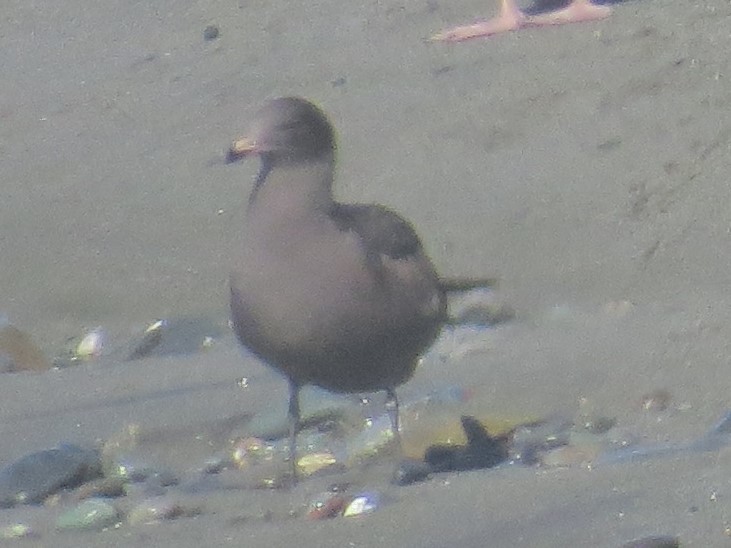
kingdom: Animalia
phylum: Chordata
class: Aves
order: Charadriiformes
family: Laridae
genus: Larus
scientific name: Larus heermanni
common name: Heermann's gull
